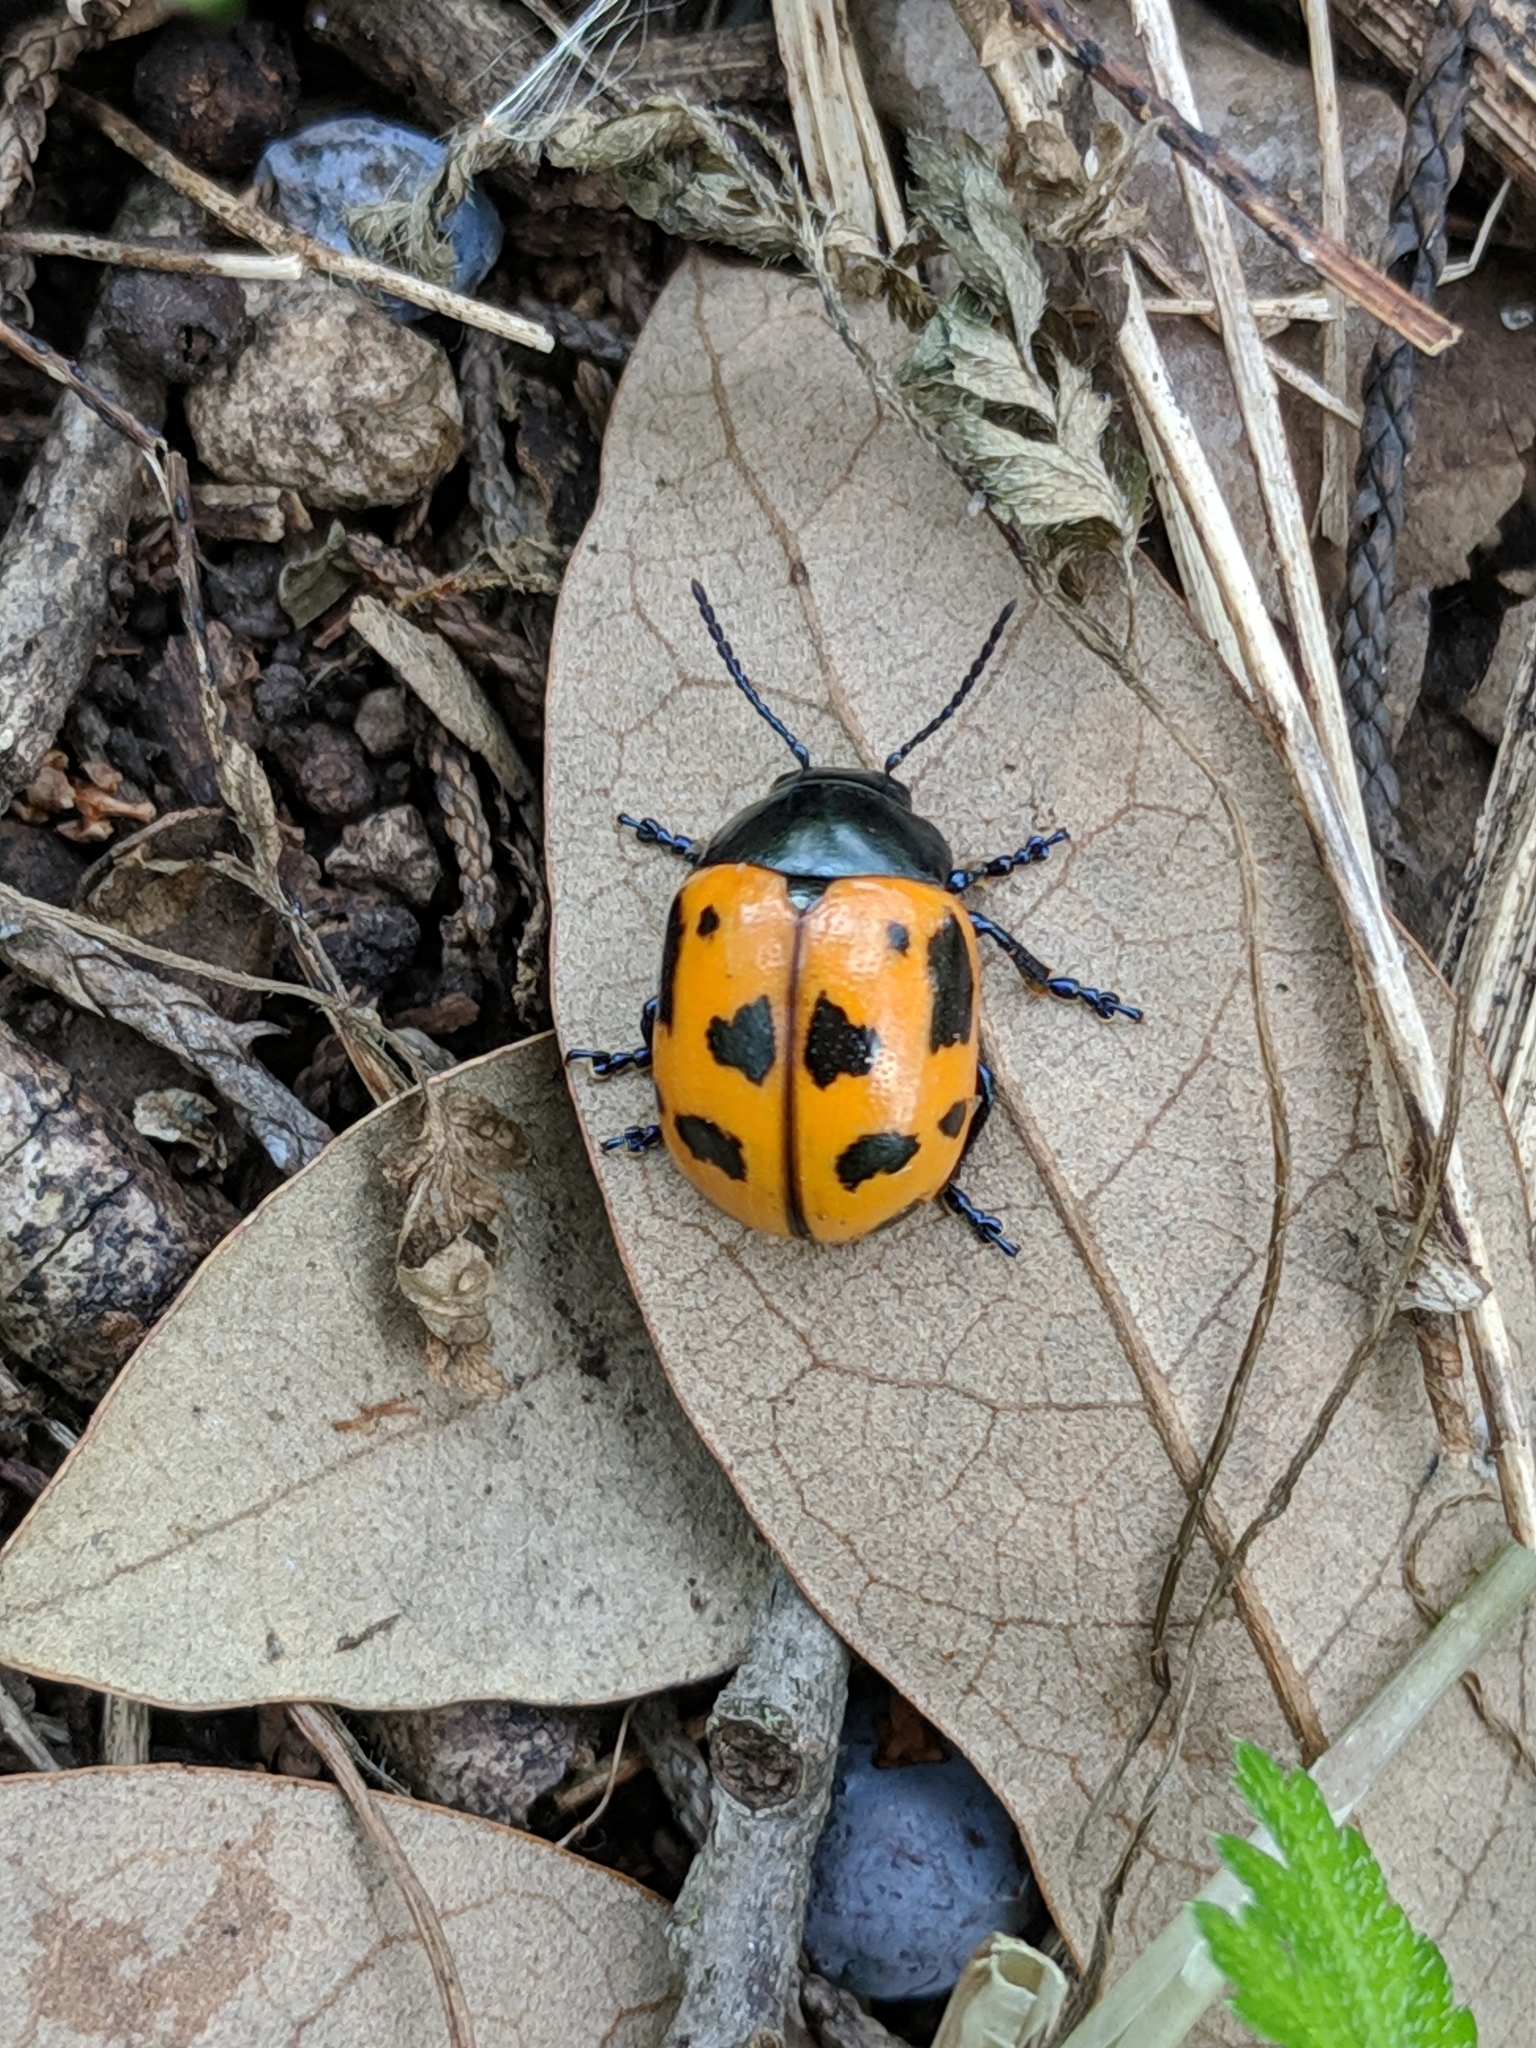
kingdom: Animalia
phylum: Arthropoda
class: Insecta
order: Coleoptera
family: Chrysomelidae
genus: Labidomera
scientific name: Labidomera clivicollis
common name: Swamp milkweed leaf beetle
